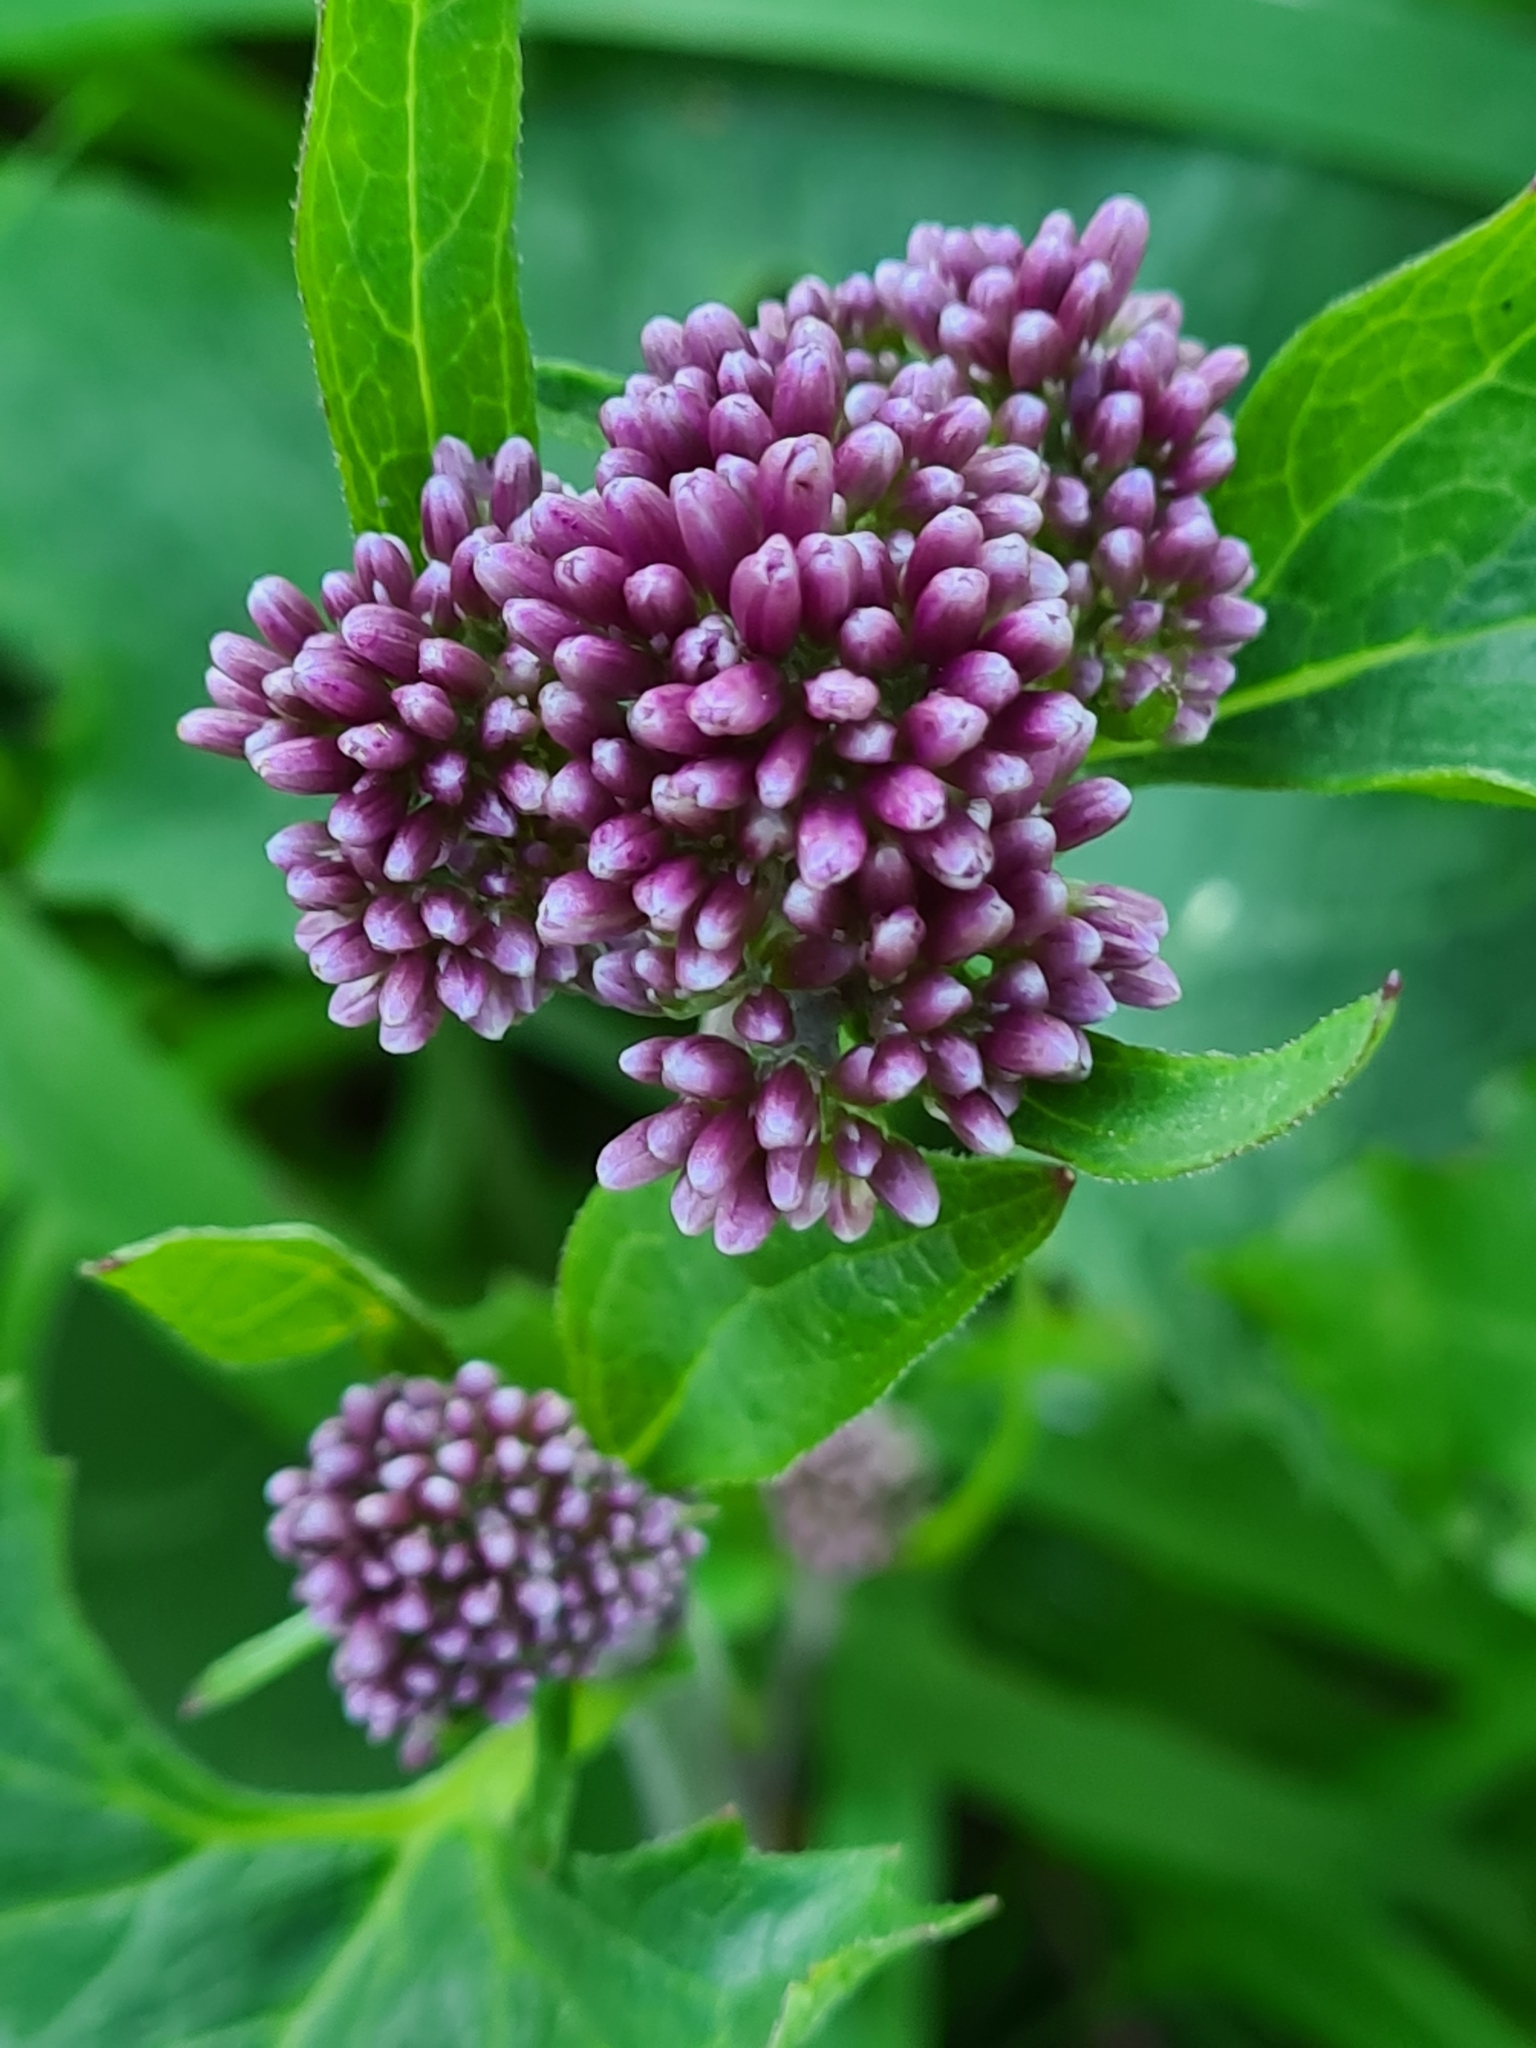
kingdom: Plantae
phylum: Tracheophyta
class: Magnoliopsida
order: Asterales
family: Asteraceae
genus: Adenostyles
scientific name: Adenostyles alliariae
